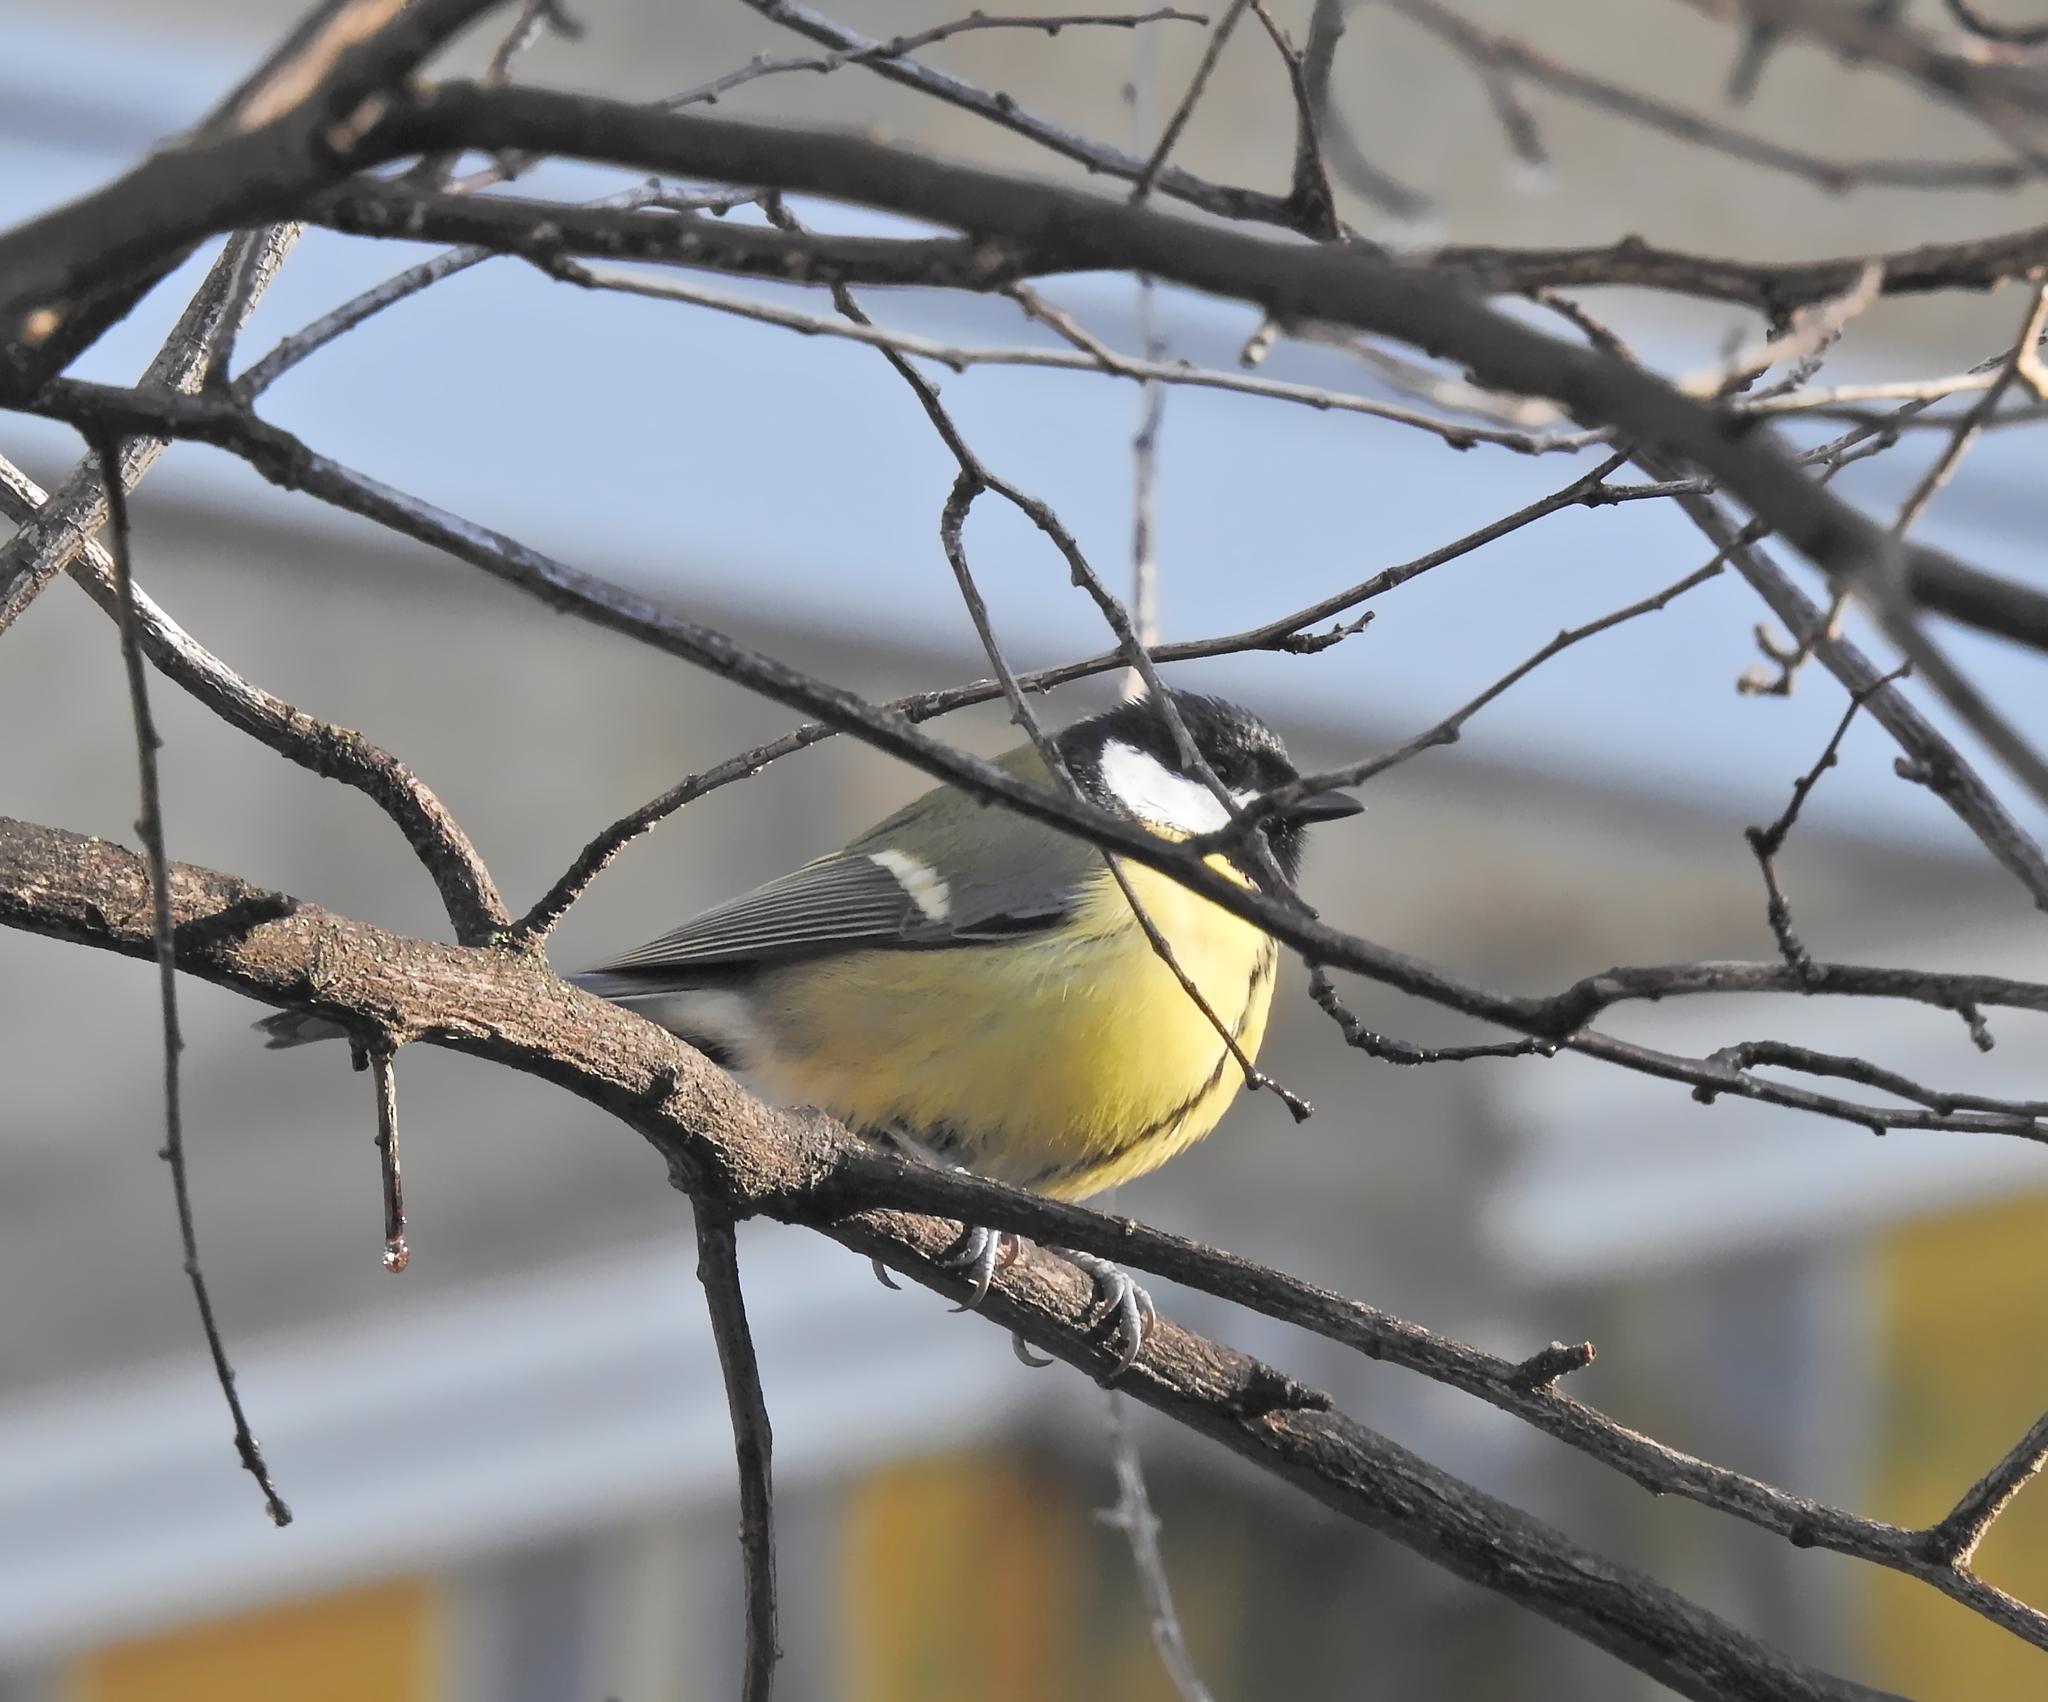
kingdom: Animalia
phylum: Chordata
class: Aves
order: Passeriformes
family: Paridae
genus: Parus
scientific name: Parus major
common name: Great tit
